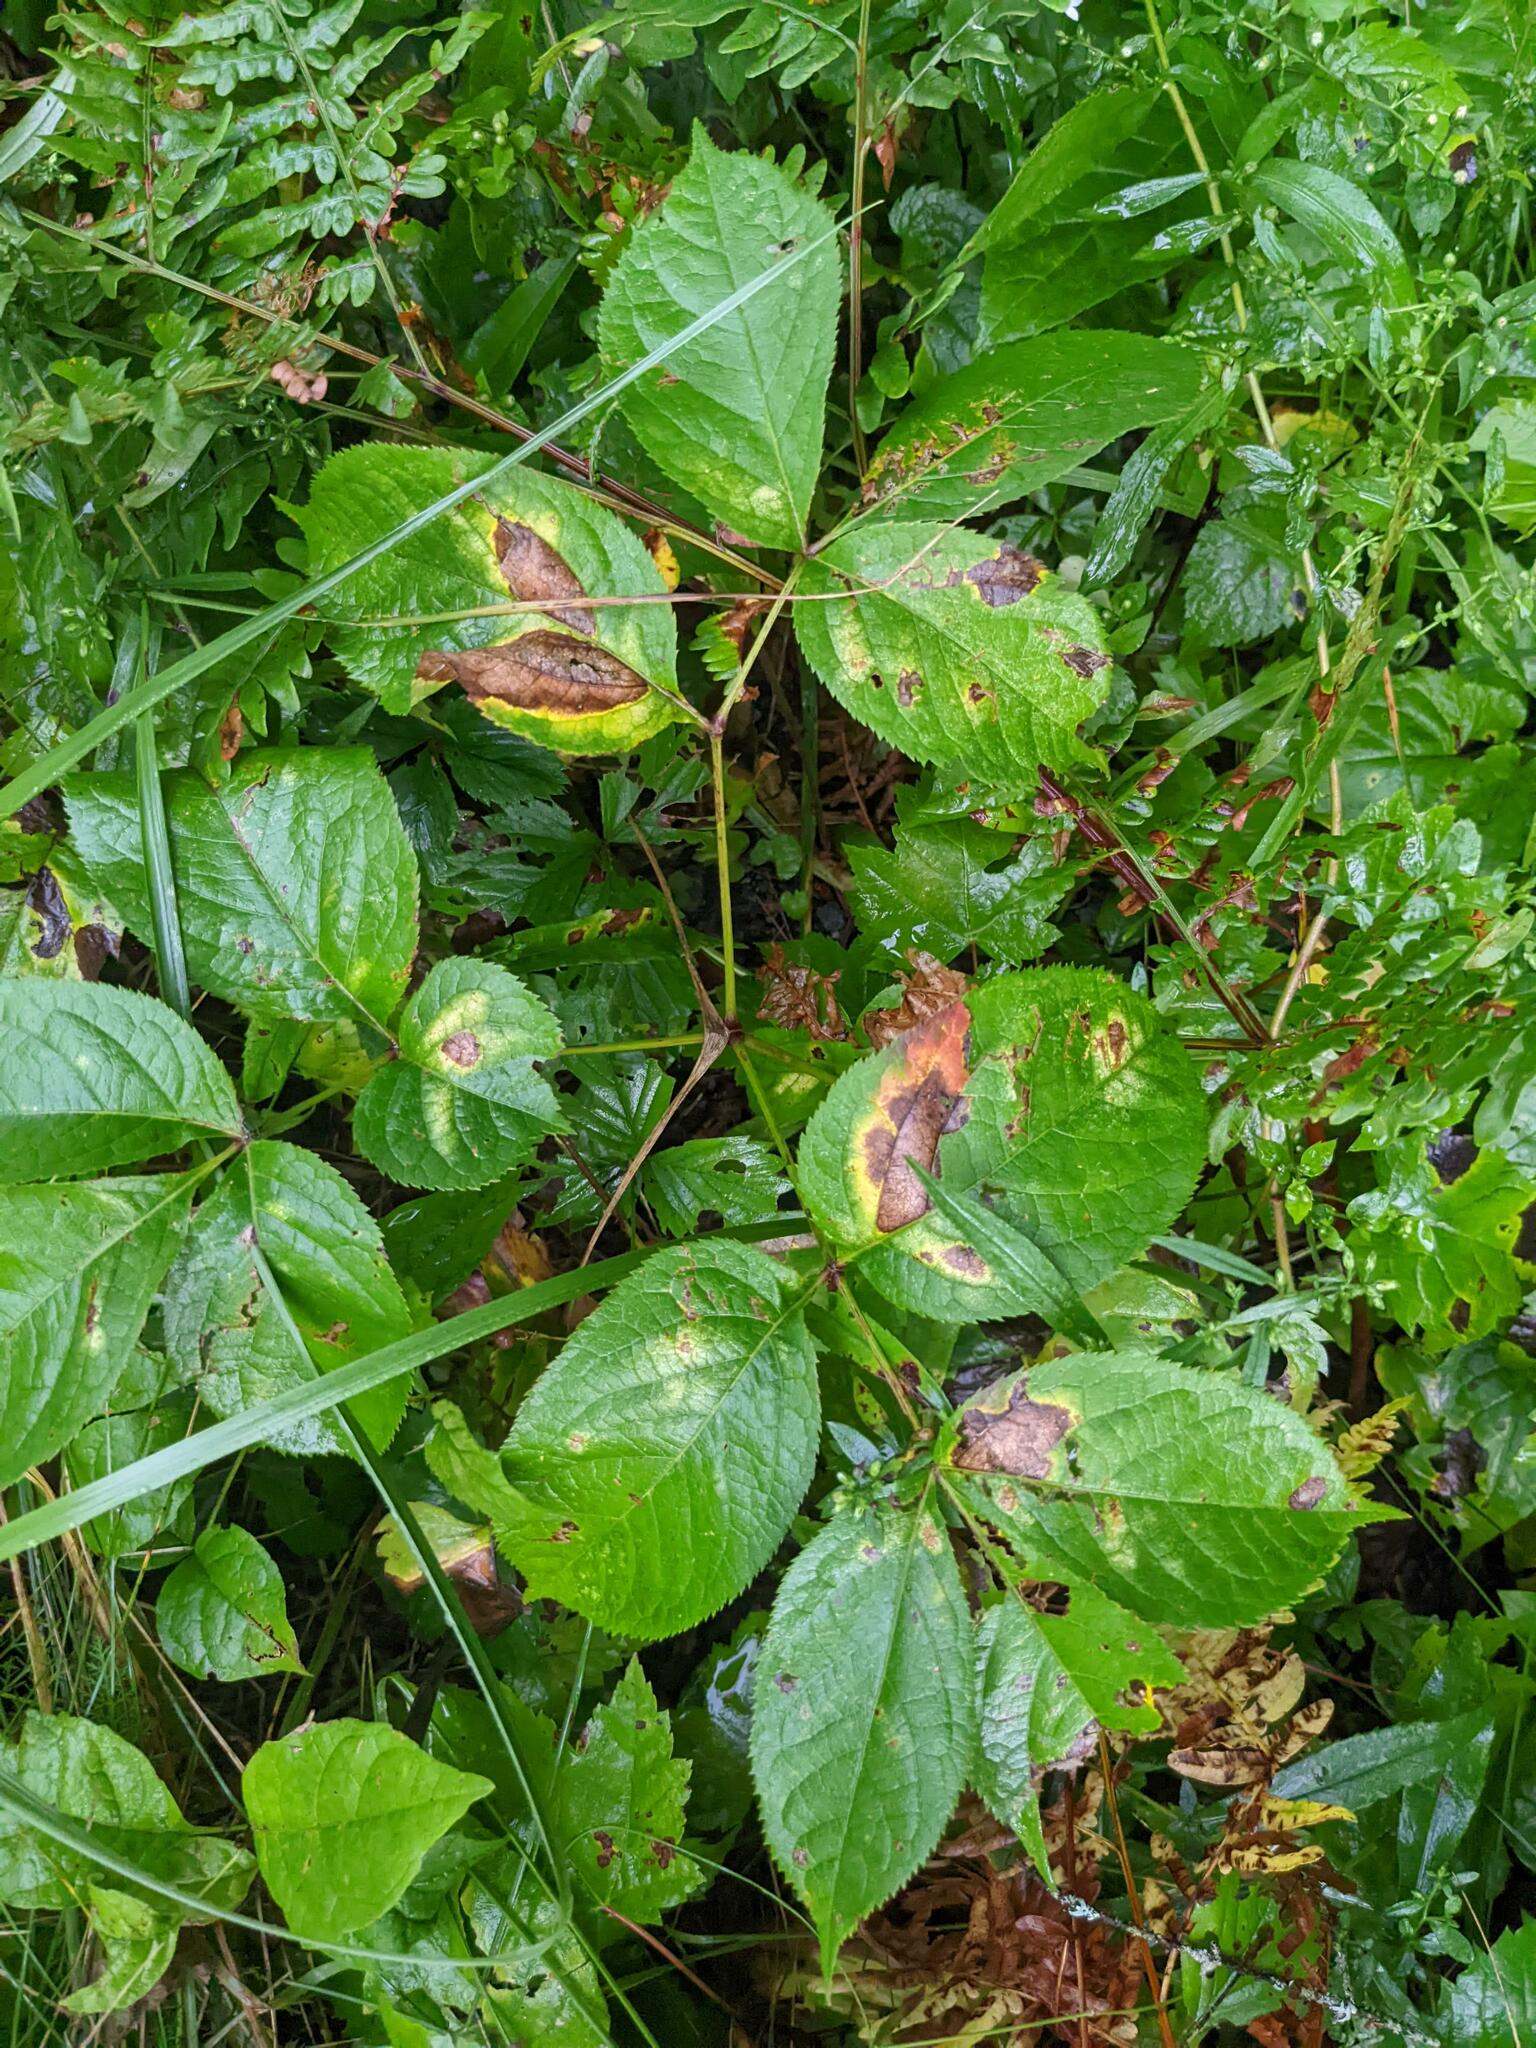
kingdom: Plantae
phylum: Tracheophyta
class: Magnoliopsida
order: Apiales
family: Araliaceae
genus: Aralia
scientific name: Aralia nudicaulis
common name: Wild sarsaparilla
